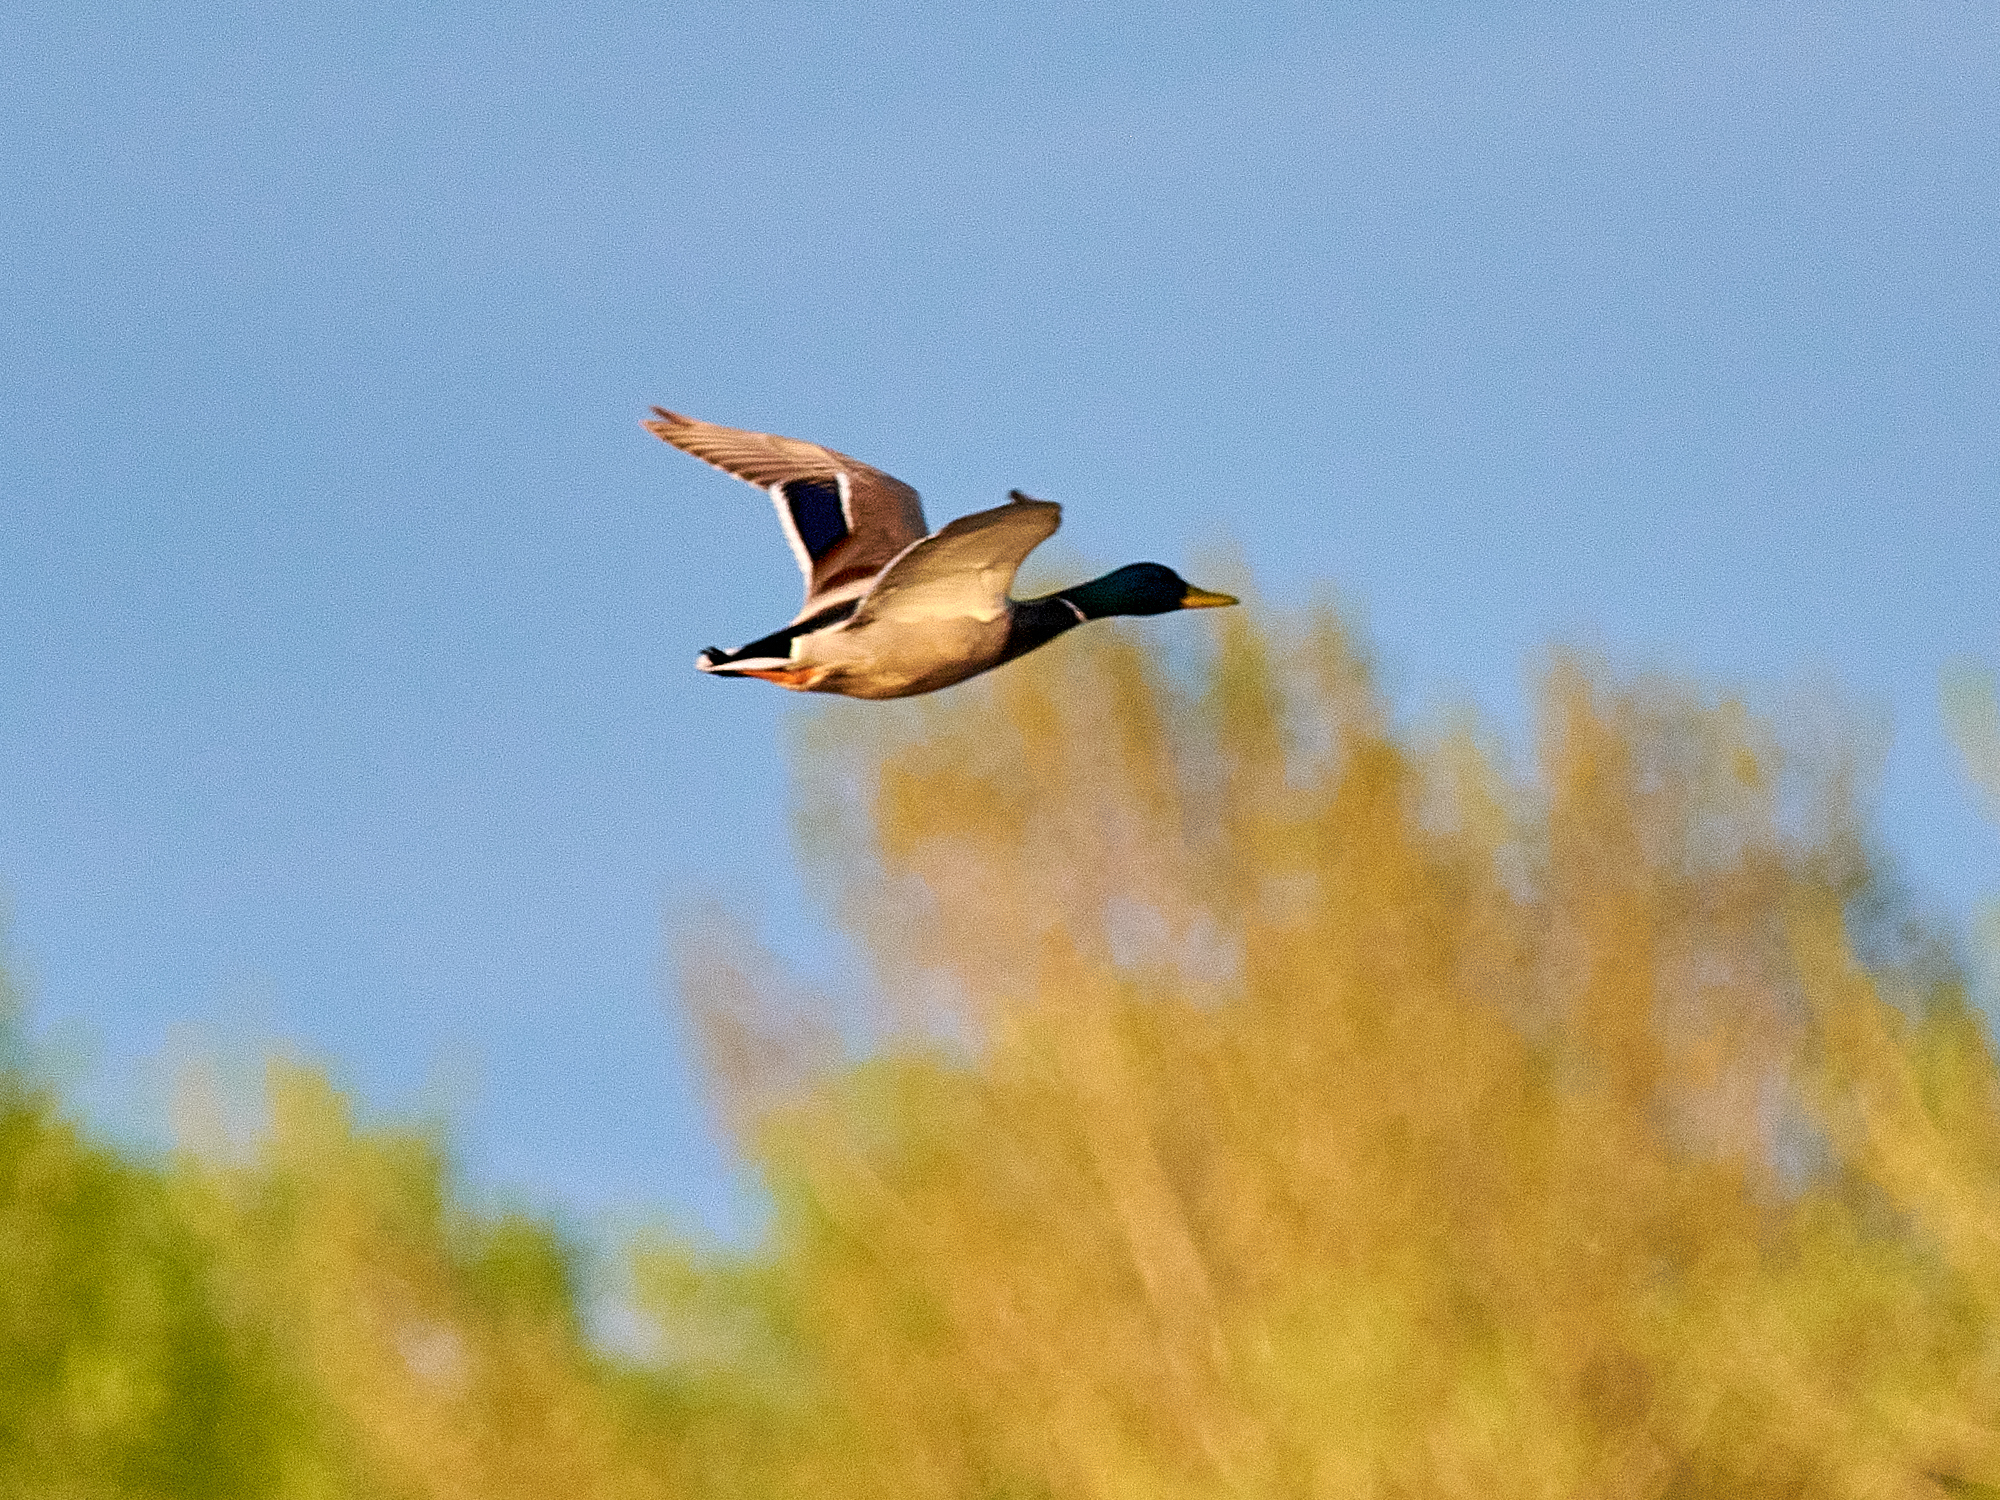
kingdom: Animalia
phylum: Chordata
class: Aves
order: Anseriformes
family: Anatidae
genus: Anas
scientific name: Anas platyrhynchos
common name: Mallard
